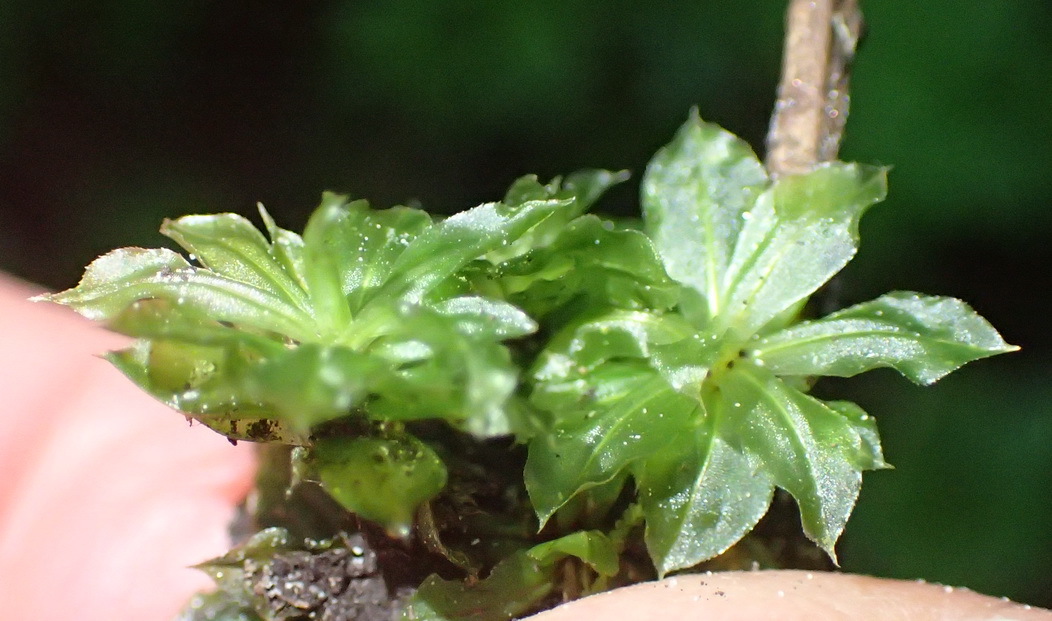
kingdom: Plantae
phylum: Bryophyta
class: Bryopsida
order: Bryales
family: Bryaceae
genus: Rhodobryum
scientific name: Rhodobryum commersonii
